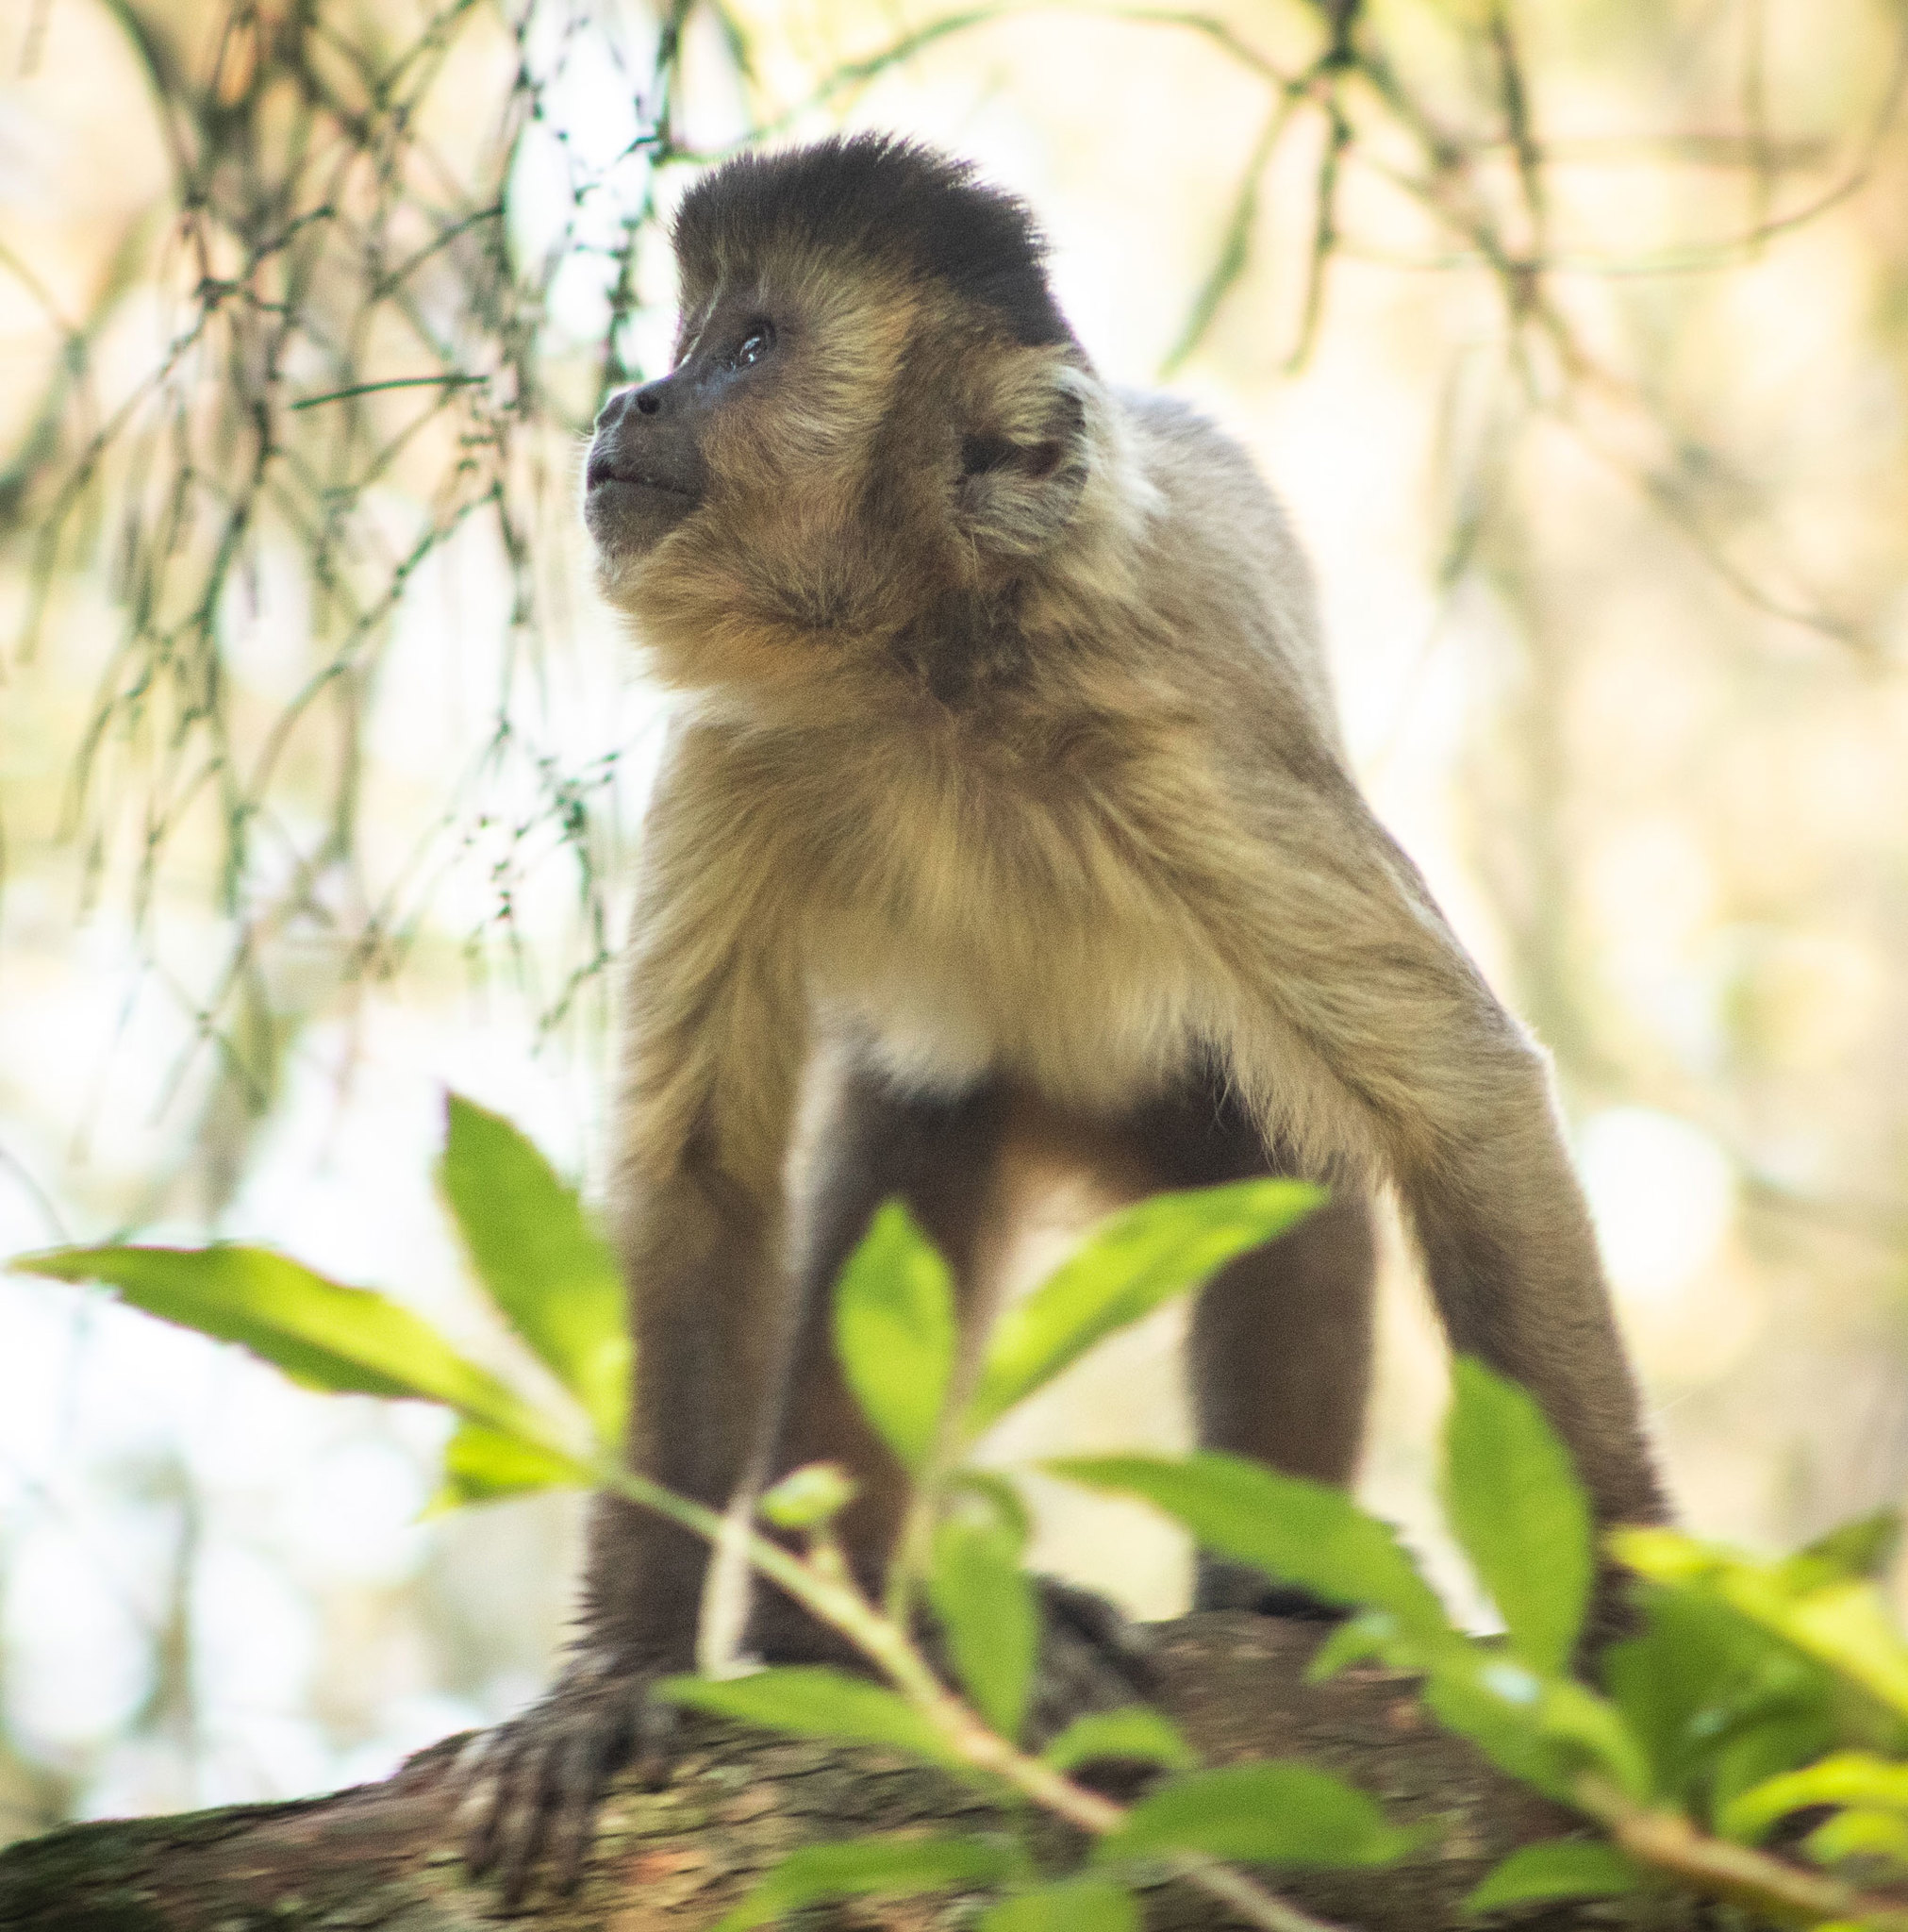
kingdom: Animalia
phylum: Chordata
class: Mammalia
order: Primates
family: Cebidae
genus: Sapajus
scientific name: Sapajus nigritus
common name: Black capuchin
